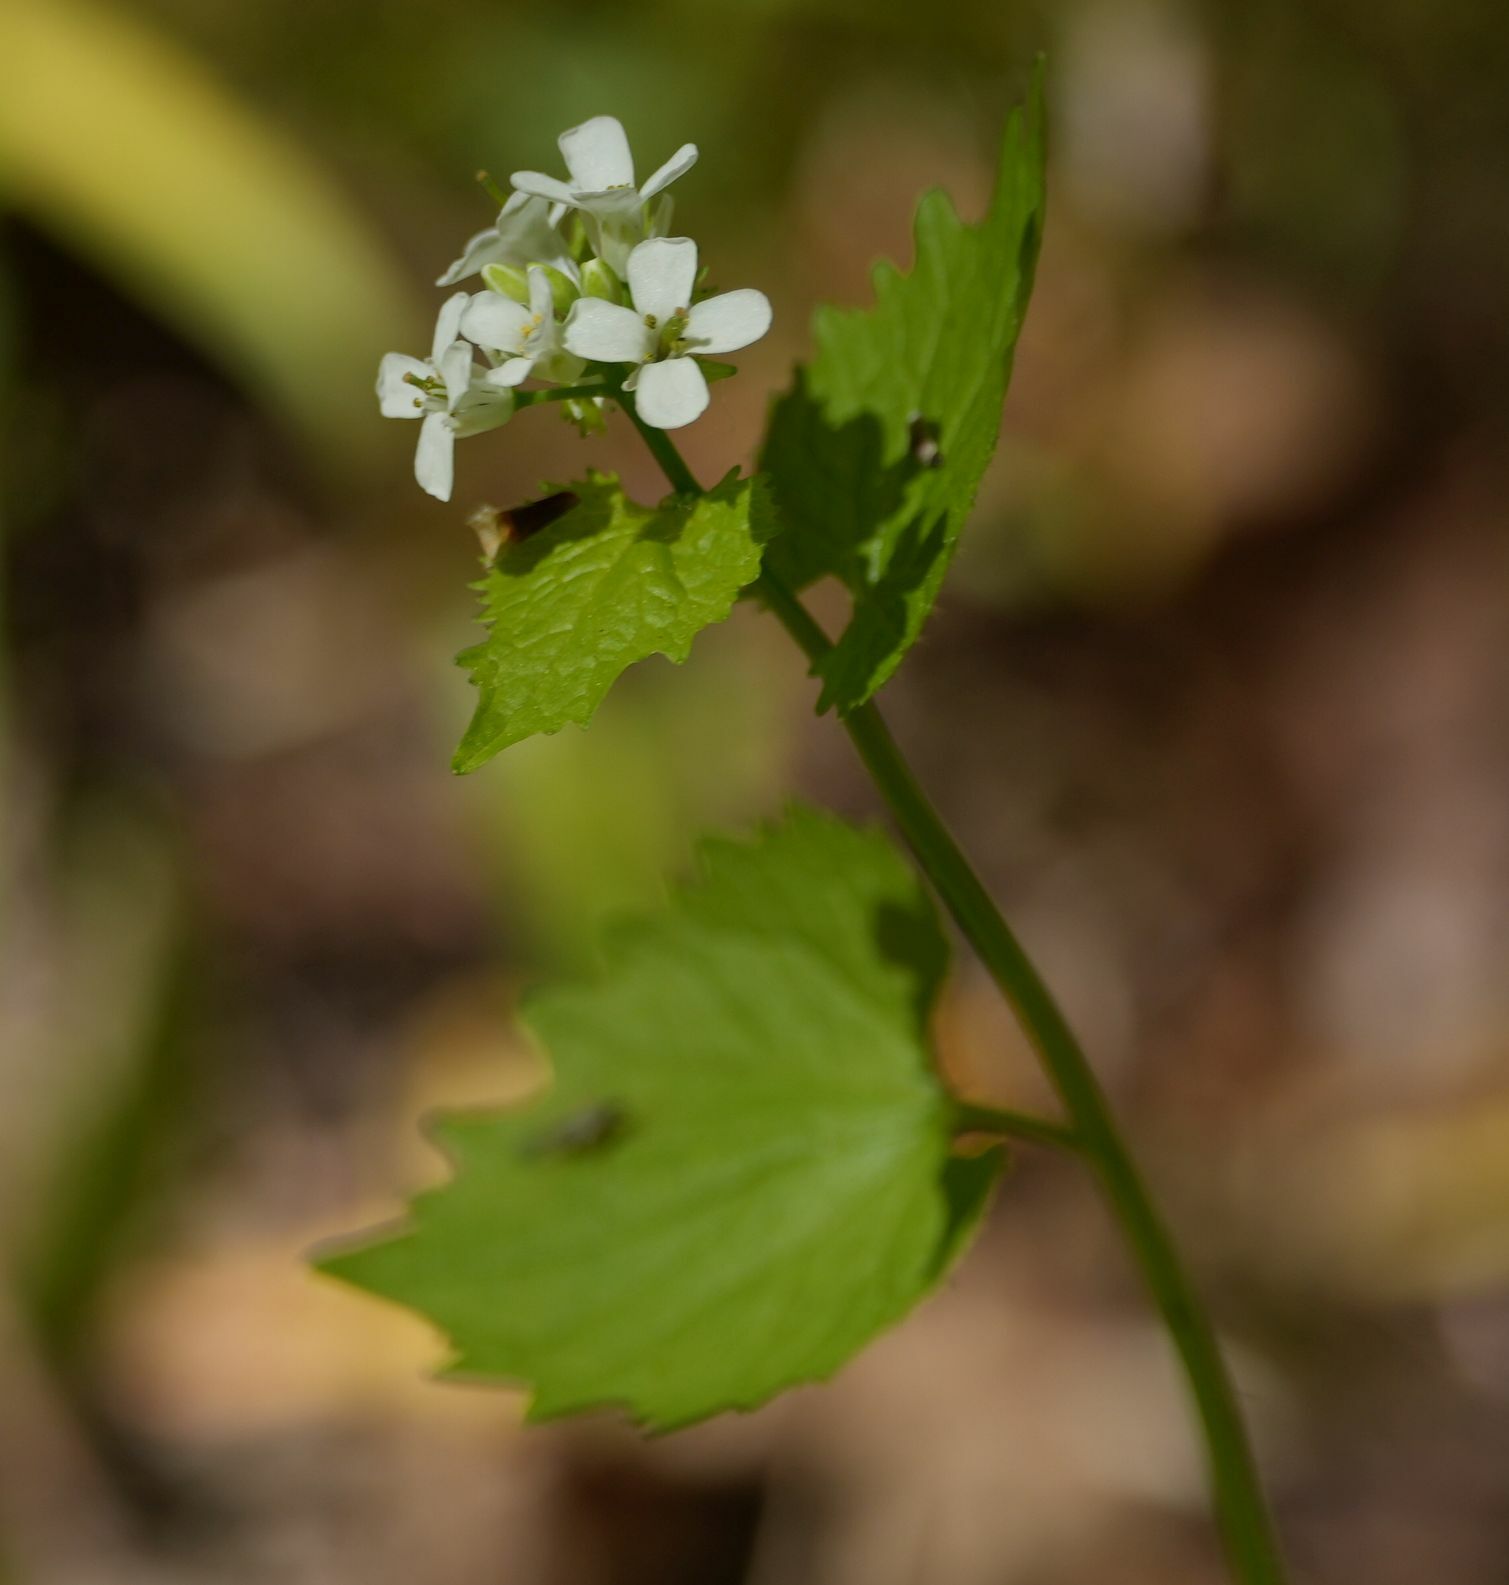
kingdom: Plantae
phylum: Tracheophyta
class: Magnoliopsida
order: Brassicales
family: Brassicaceae
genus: Alliaria
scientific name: Alliaria petiolata
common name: Garlic mustard
